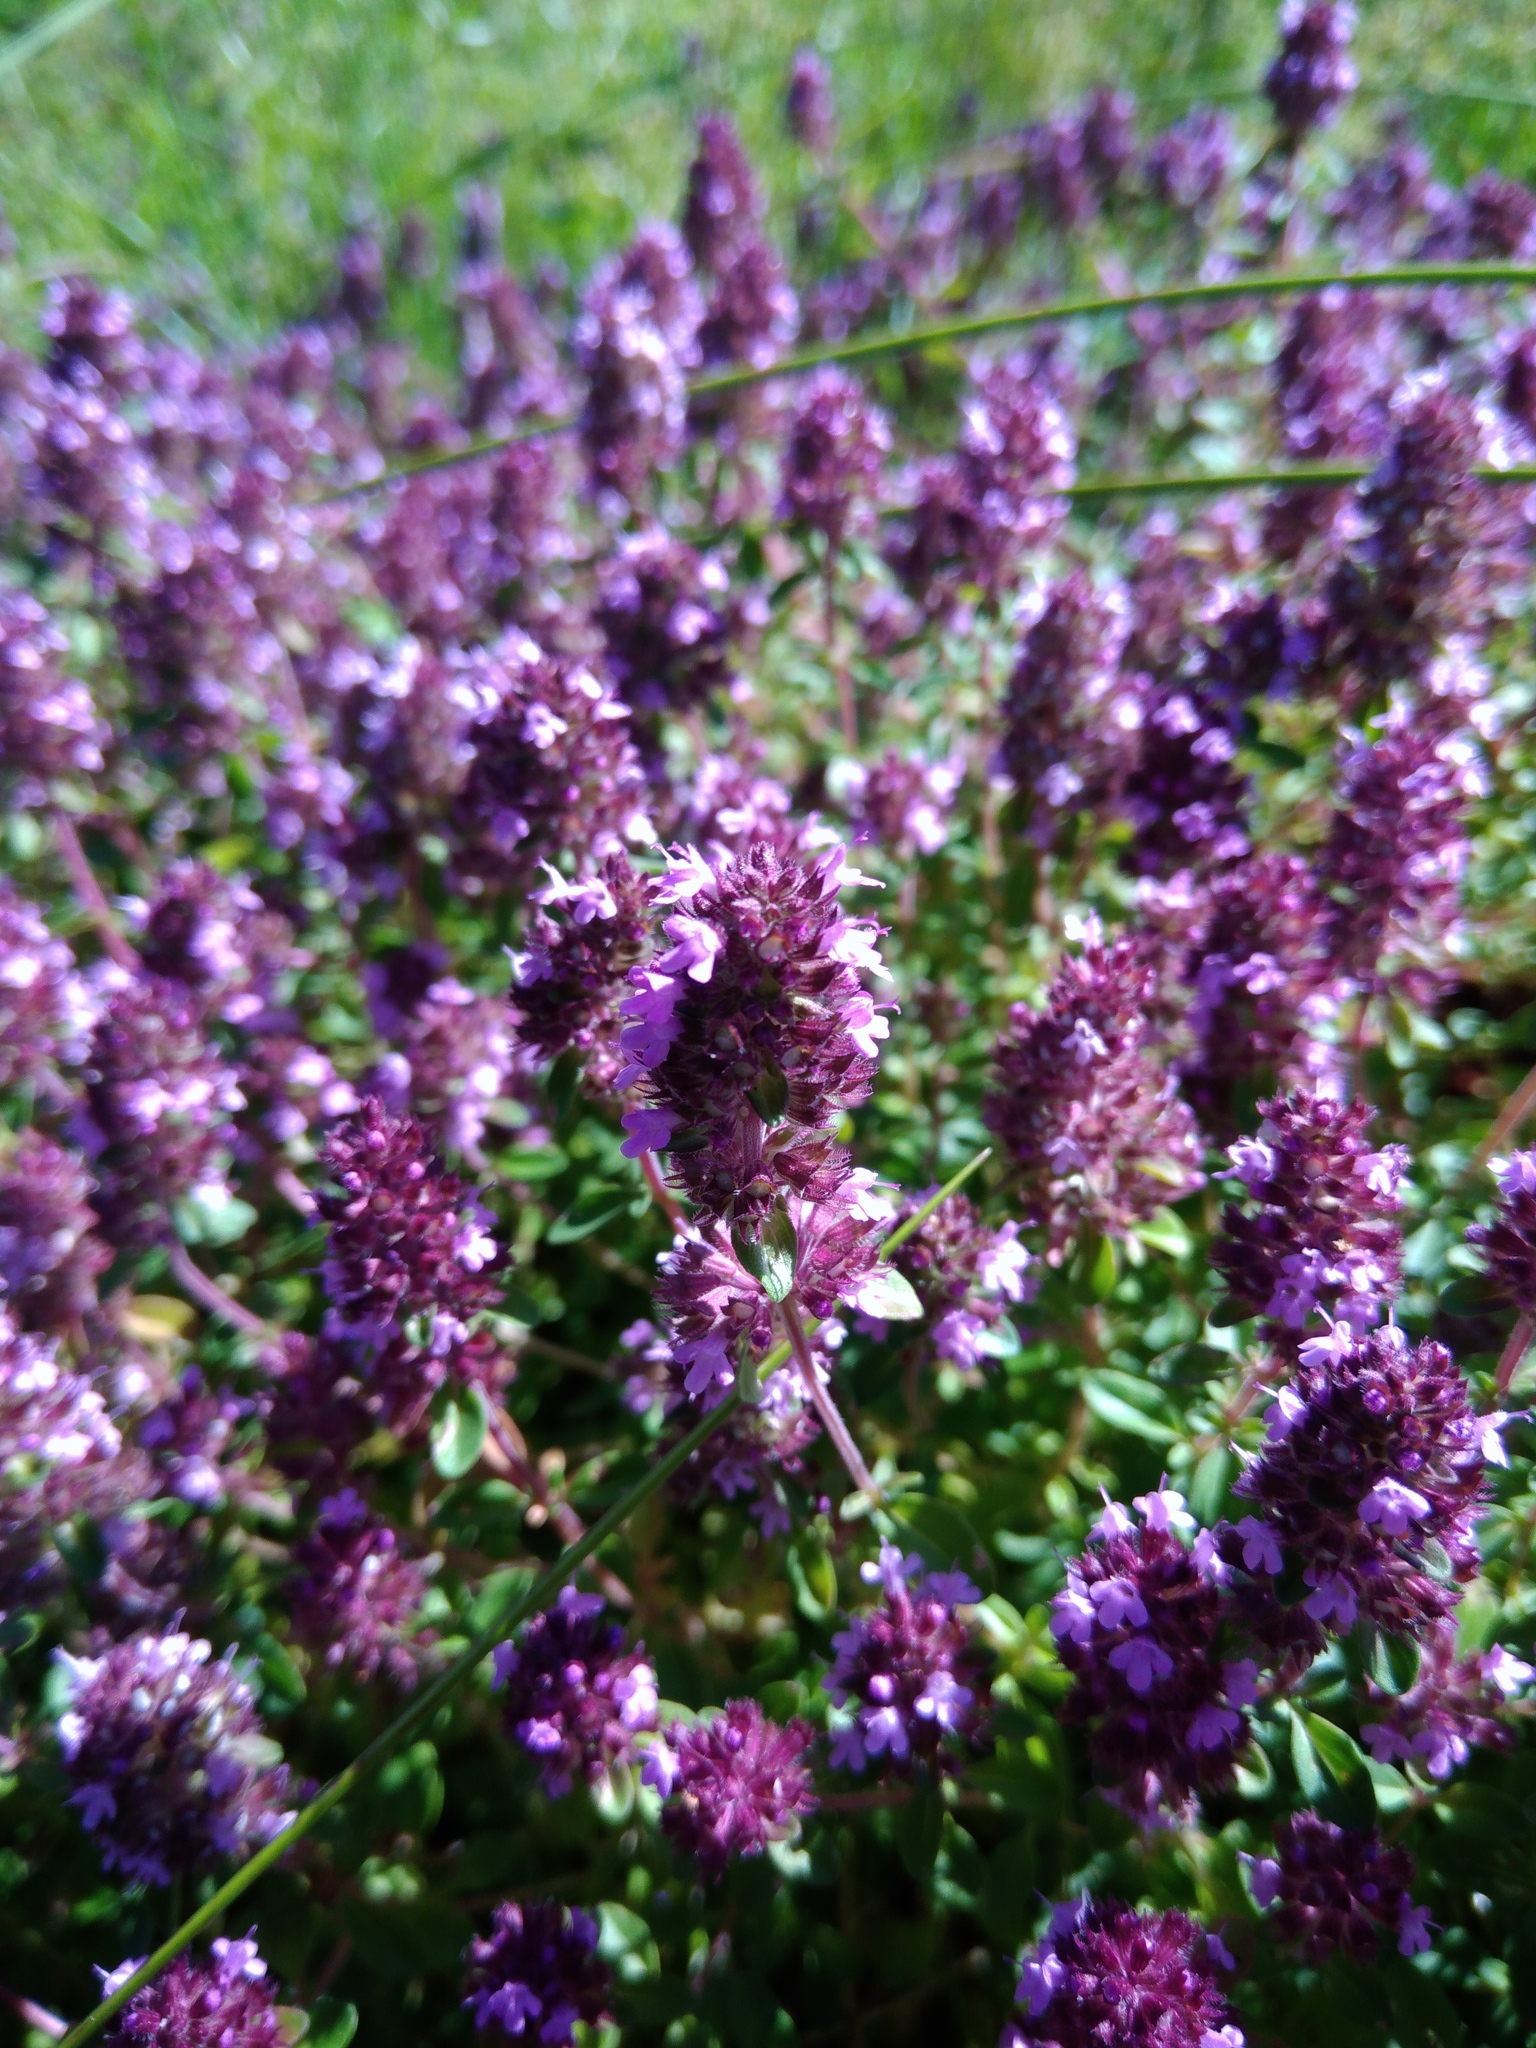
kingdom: Plantae
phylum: Tracheophyta
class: Magnoliopsida
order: Lamiales
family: Lamiaceae
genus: Thymus
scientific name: Thymus pulegioides
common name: Large thyme
